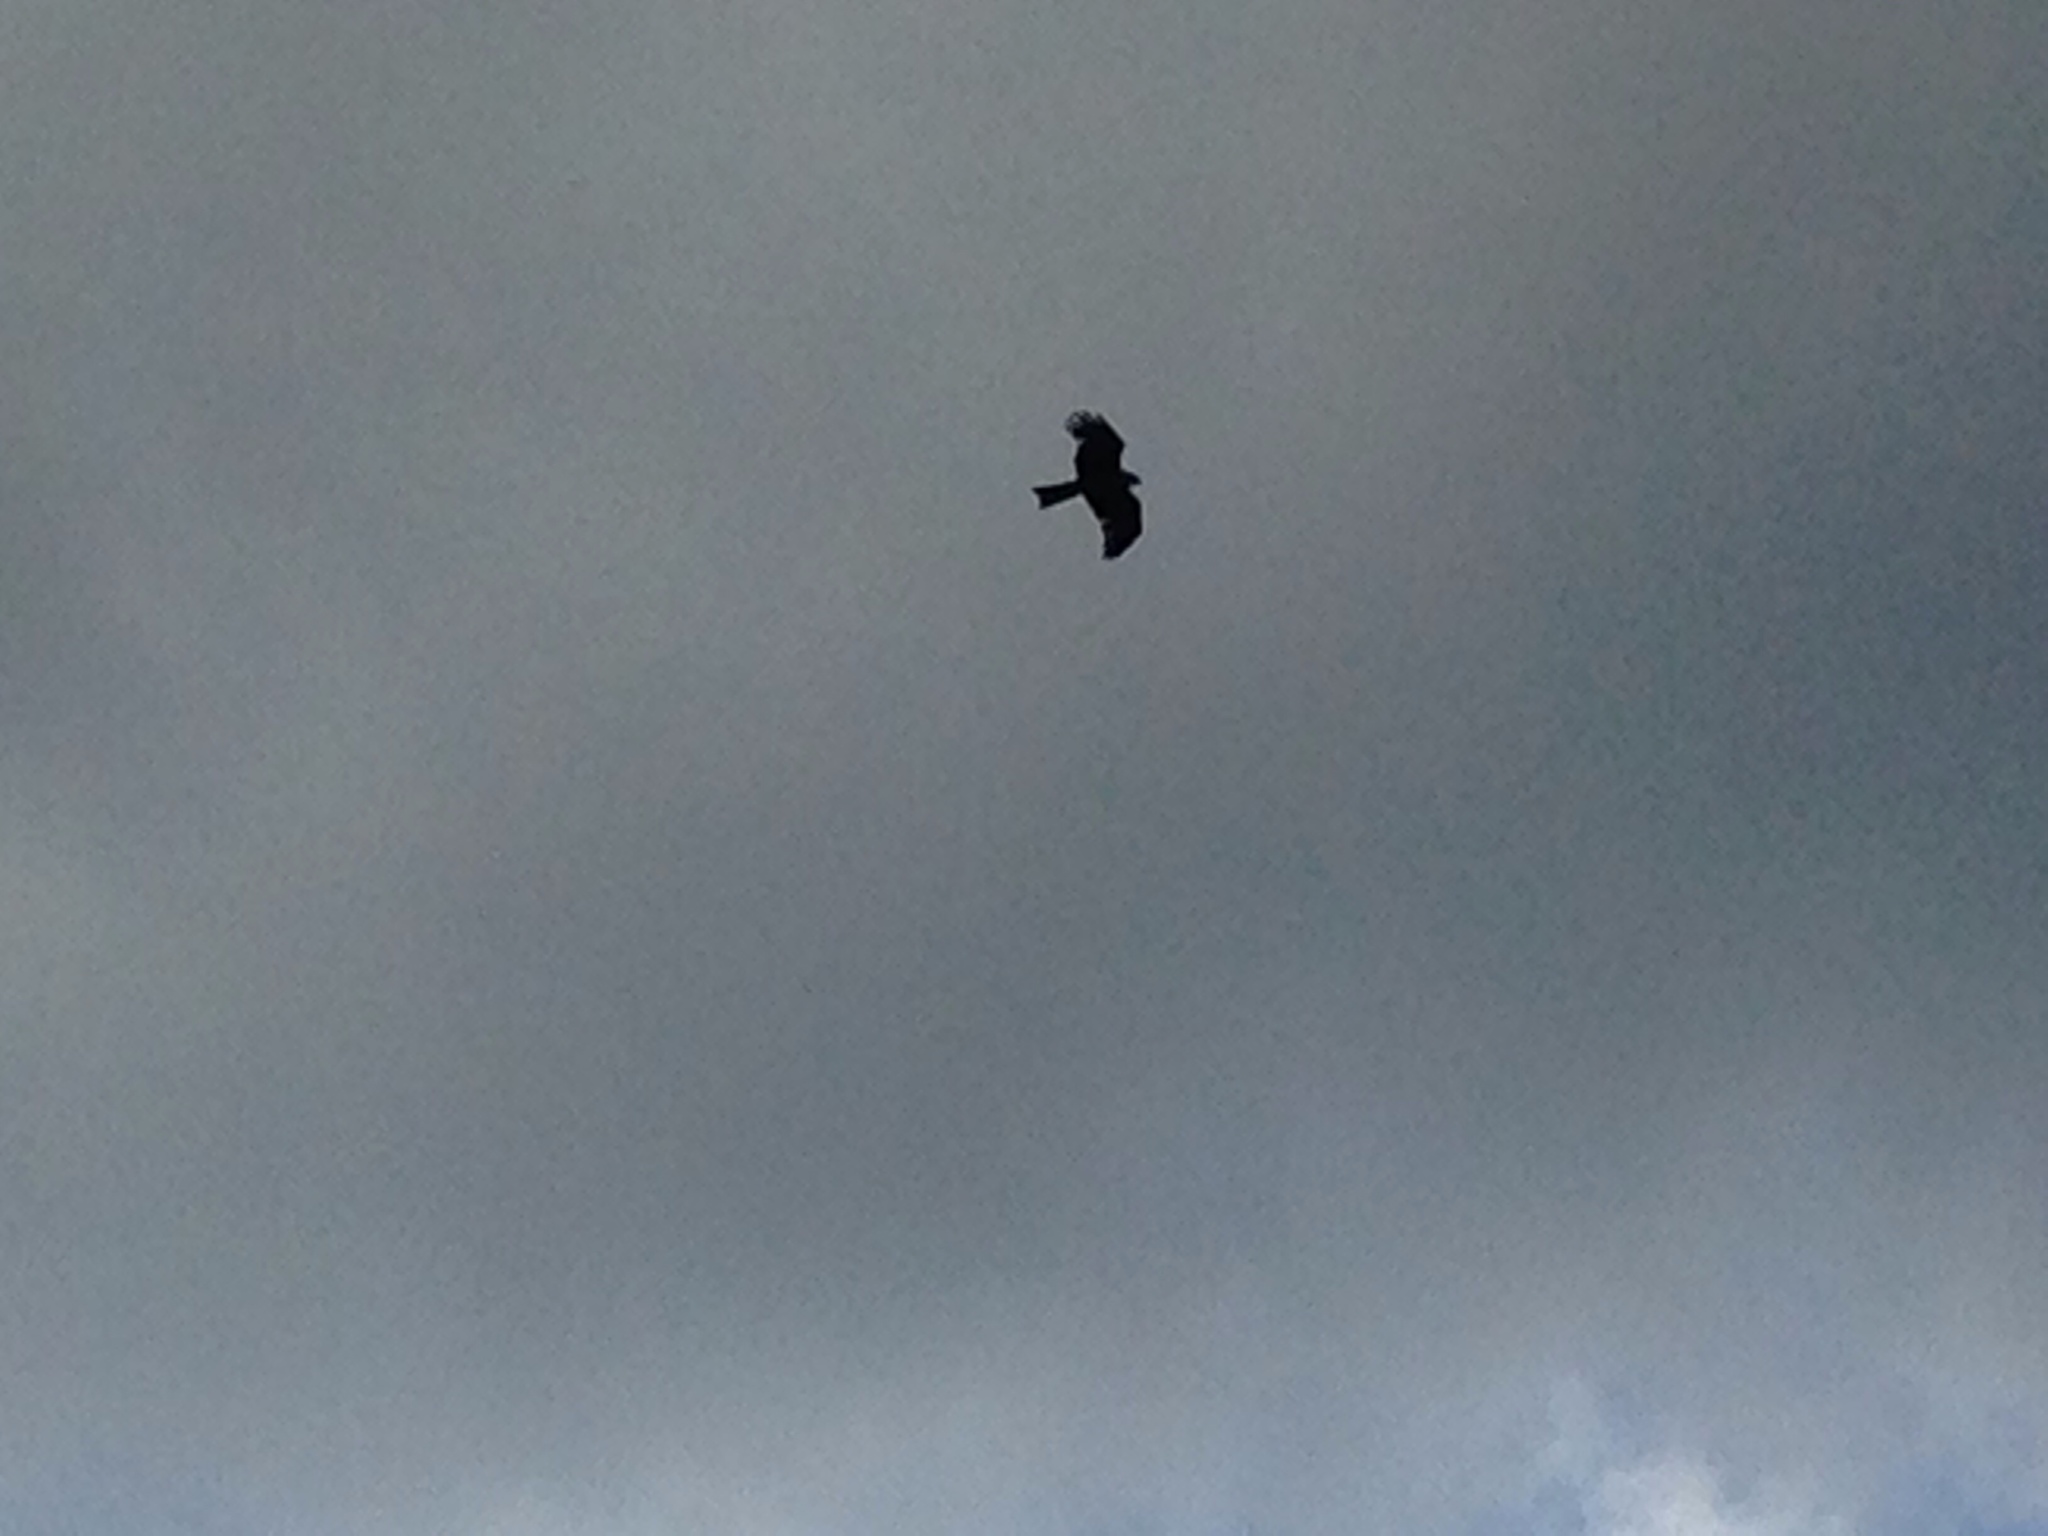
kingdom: Animalia
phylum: Chordata
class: Aves
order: Accipitriformes
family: Accipitridae
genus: Milvus
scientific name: Milvus migrans
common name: Black kite
